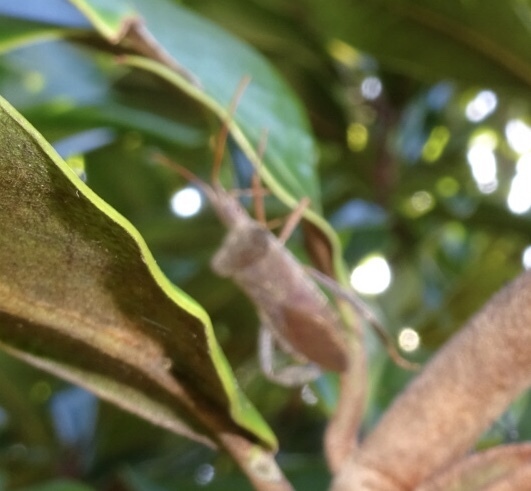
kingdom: Animalia
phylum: Arthropoda
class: Insecta
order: Hemiptera
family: Coreidae
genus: Leptoglossus
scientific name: Leptoglossus fulvicornis
